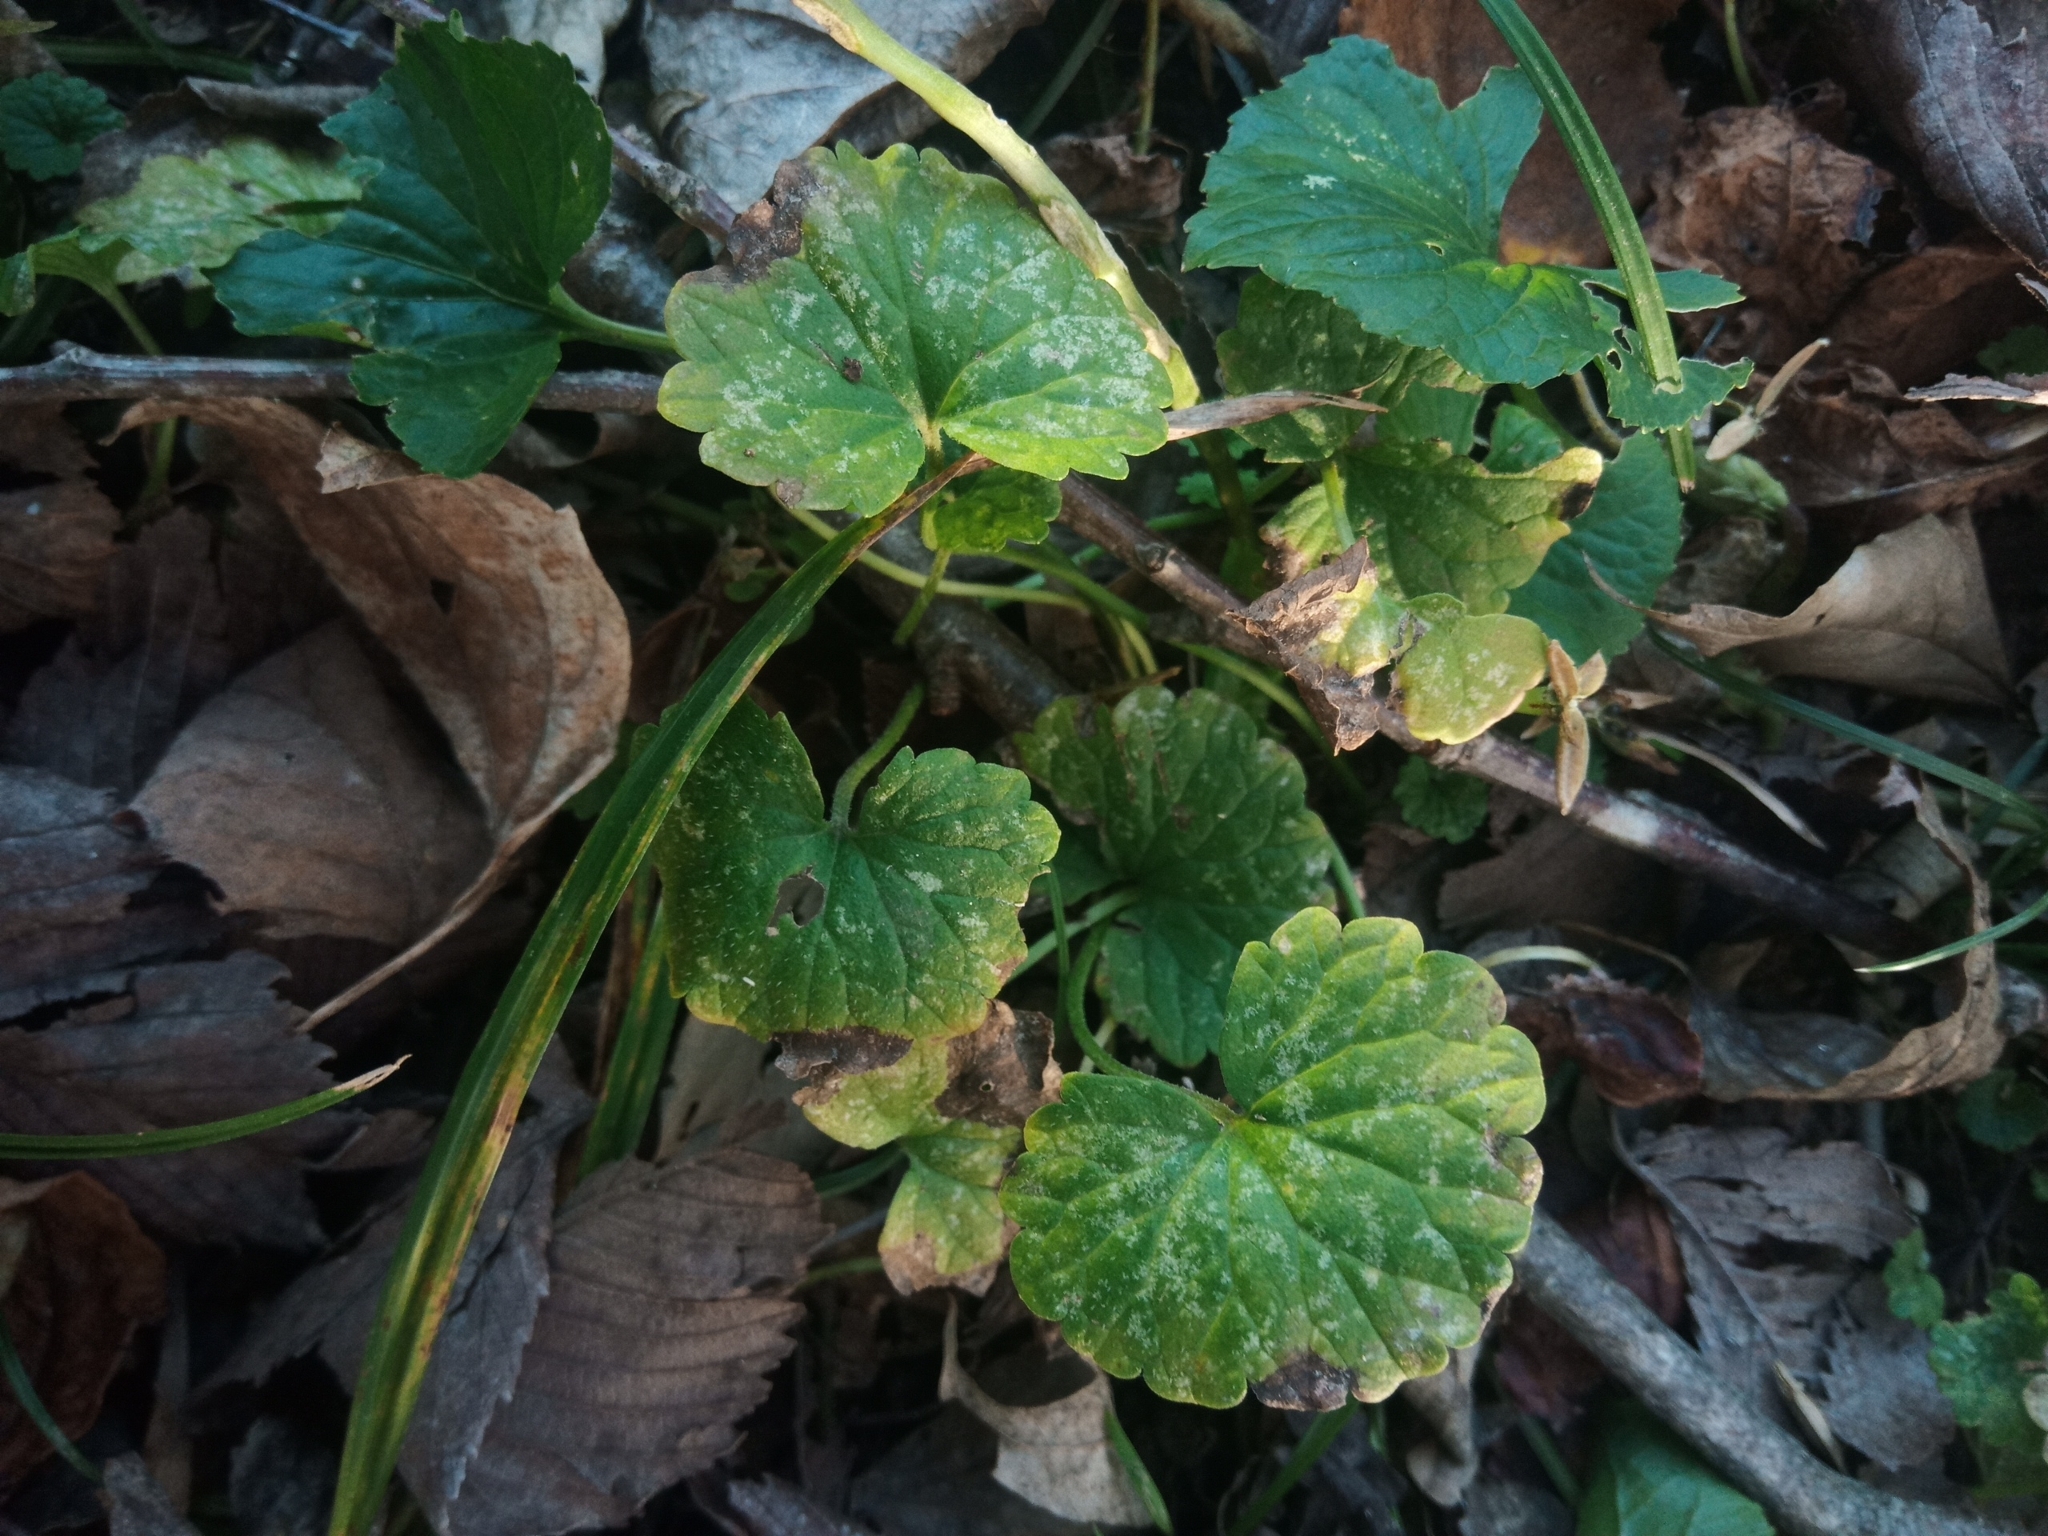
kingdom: Plantae
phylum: Tracheophyta
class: Magnoliopsida
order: Lamiales
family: Lamiaceae
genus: Glechoma
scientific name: Glechoma hederacea
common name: Ground ivy
